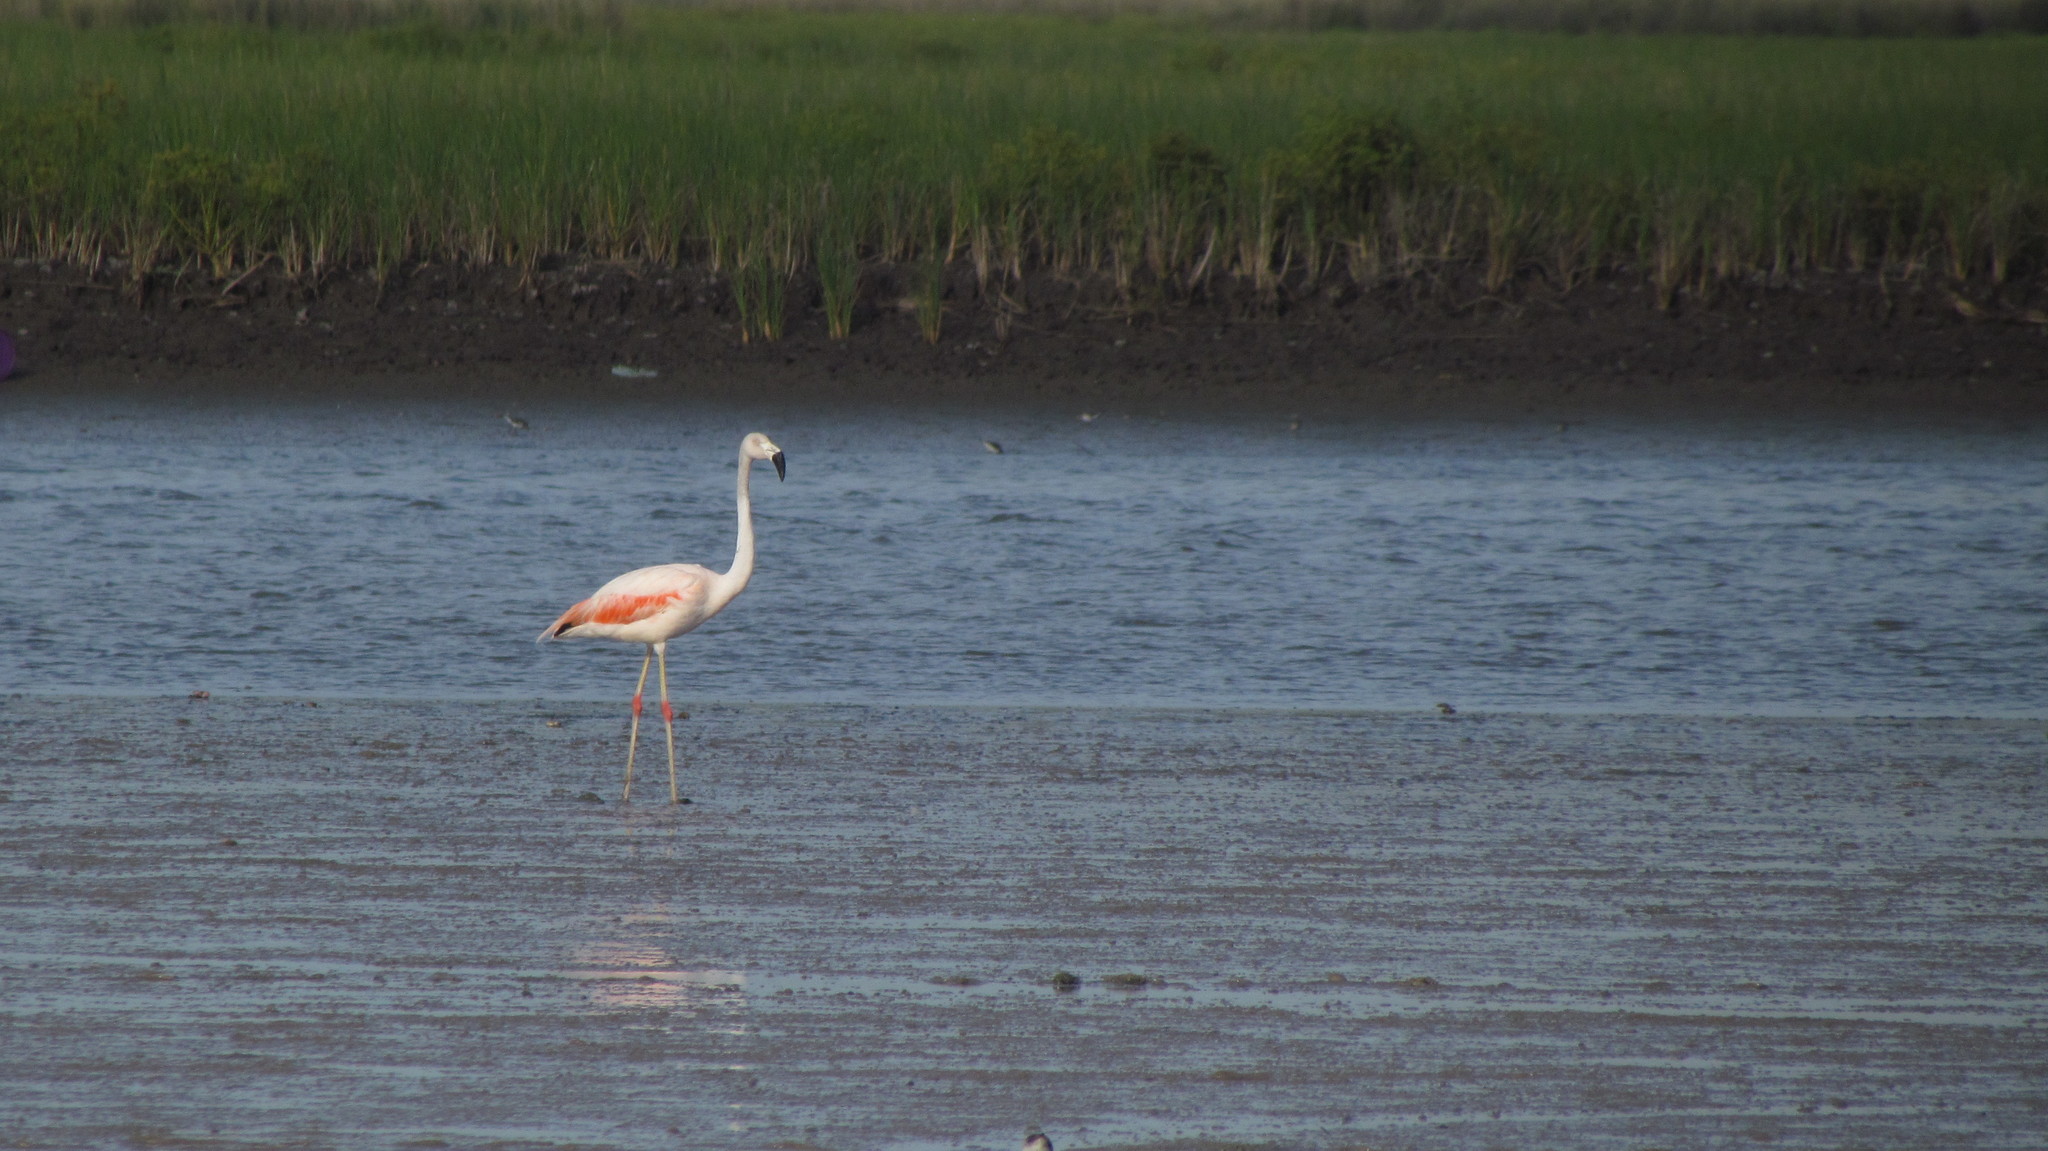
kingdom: Animalia
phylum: Chordata
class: Aves
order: Phoenicopteriformes
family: Phoenicopteridae
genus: Phoenicopterus
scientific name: Phoenicopterus chilensis
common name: Chilean flamingo
